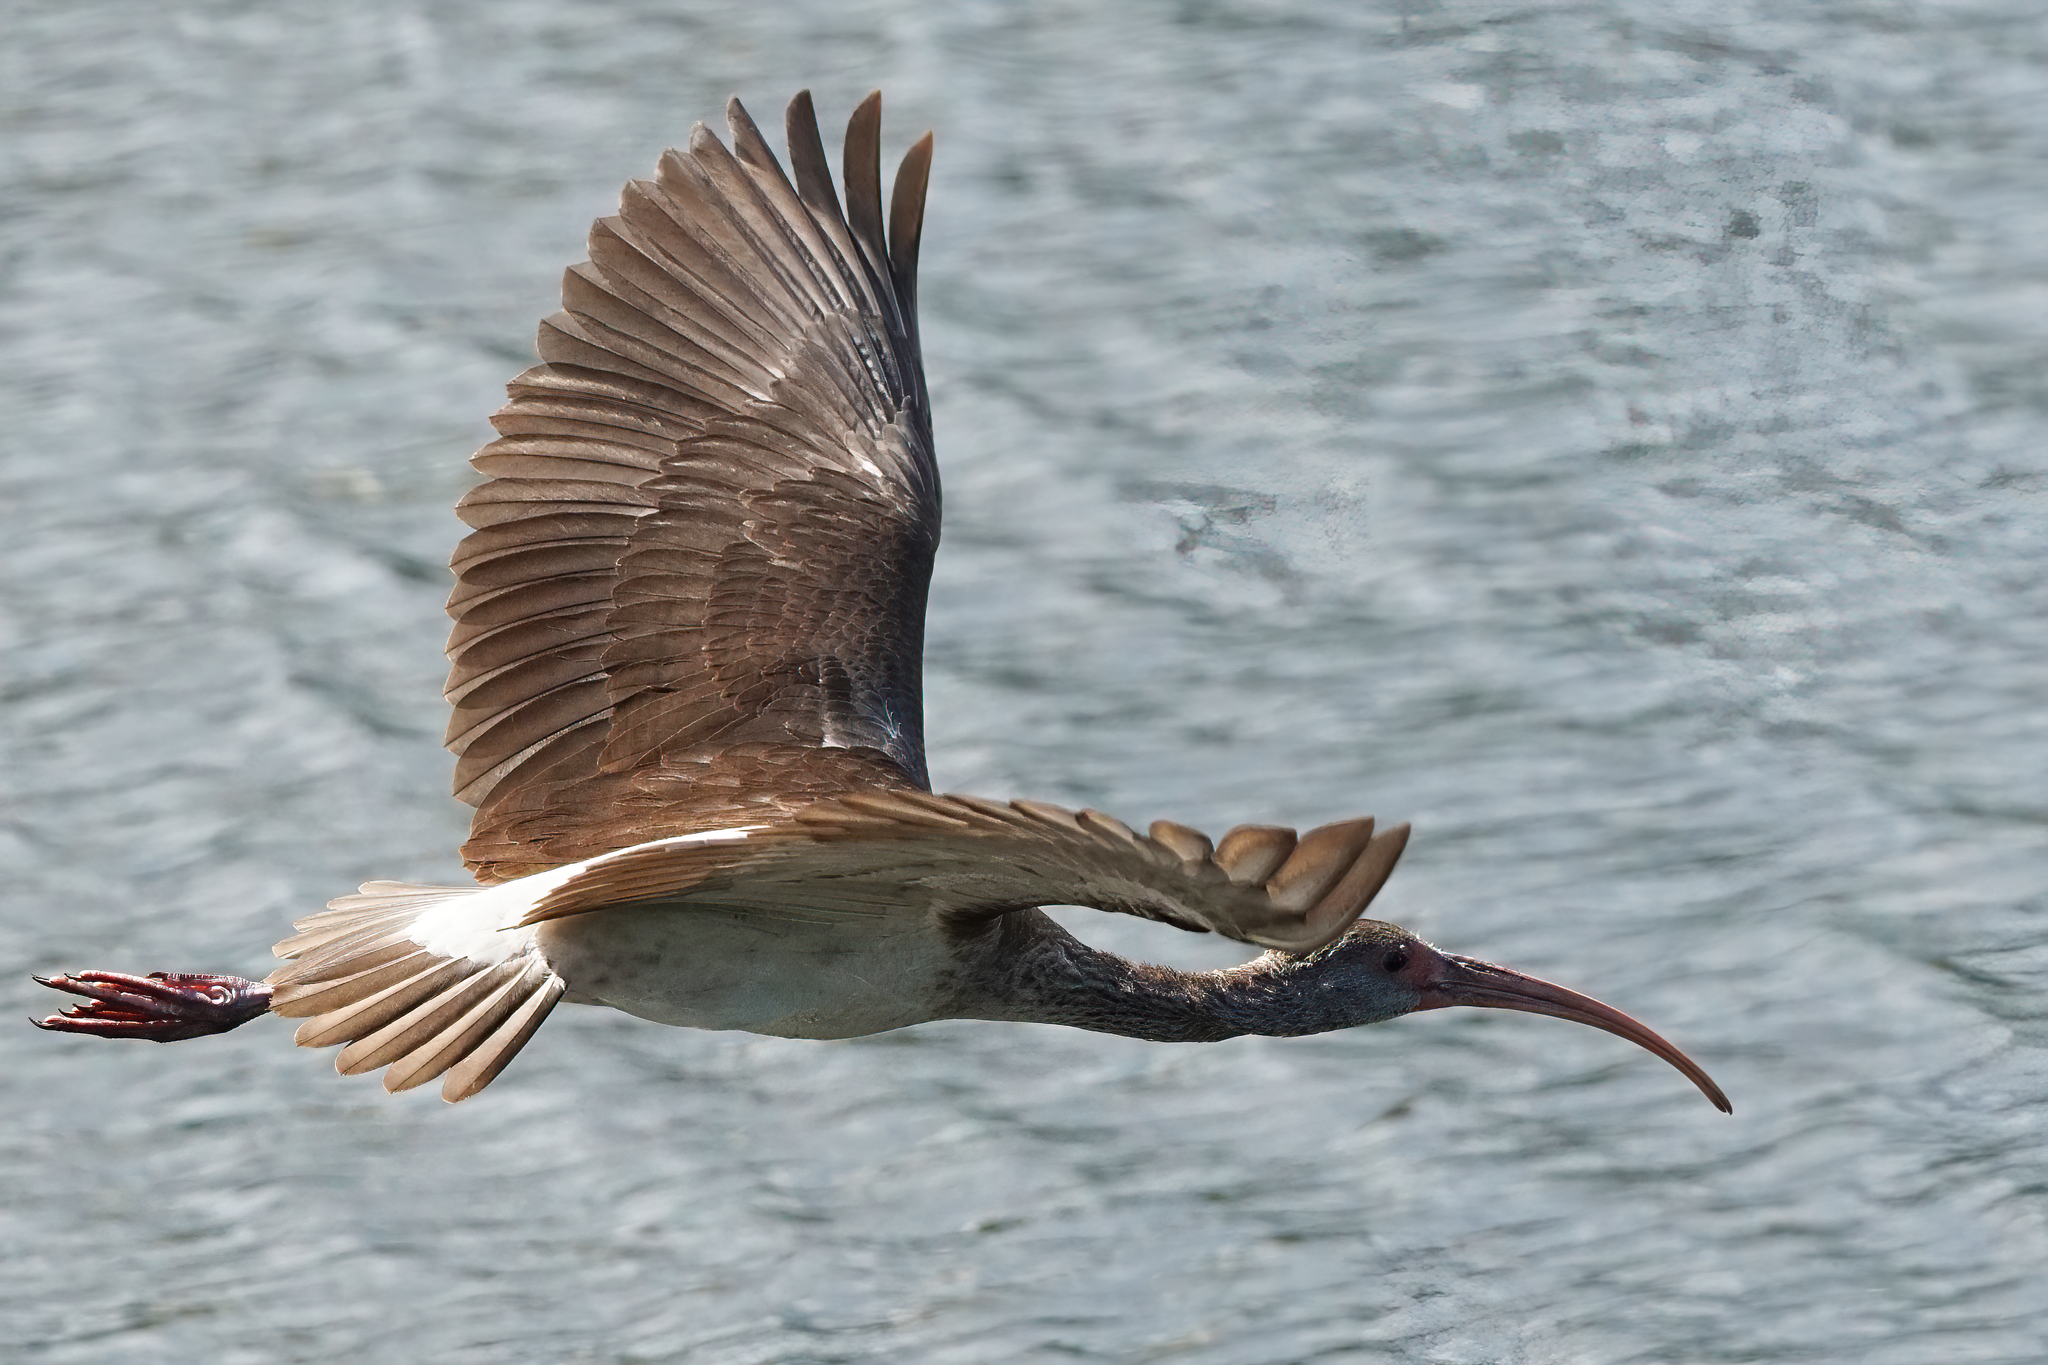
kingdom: Animalia
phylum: Chordata
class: Aves
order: Pelecaniformes
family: Threskiornithidae
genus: Eudocimus
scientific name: Eudocimus albus
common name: White ibis
